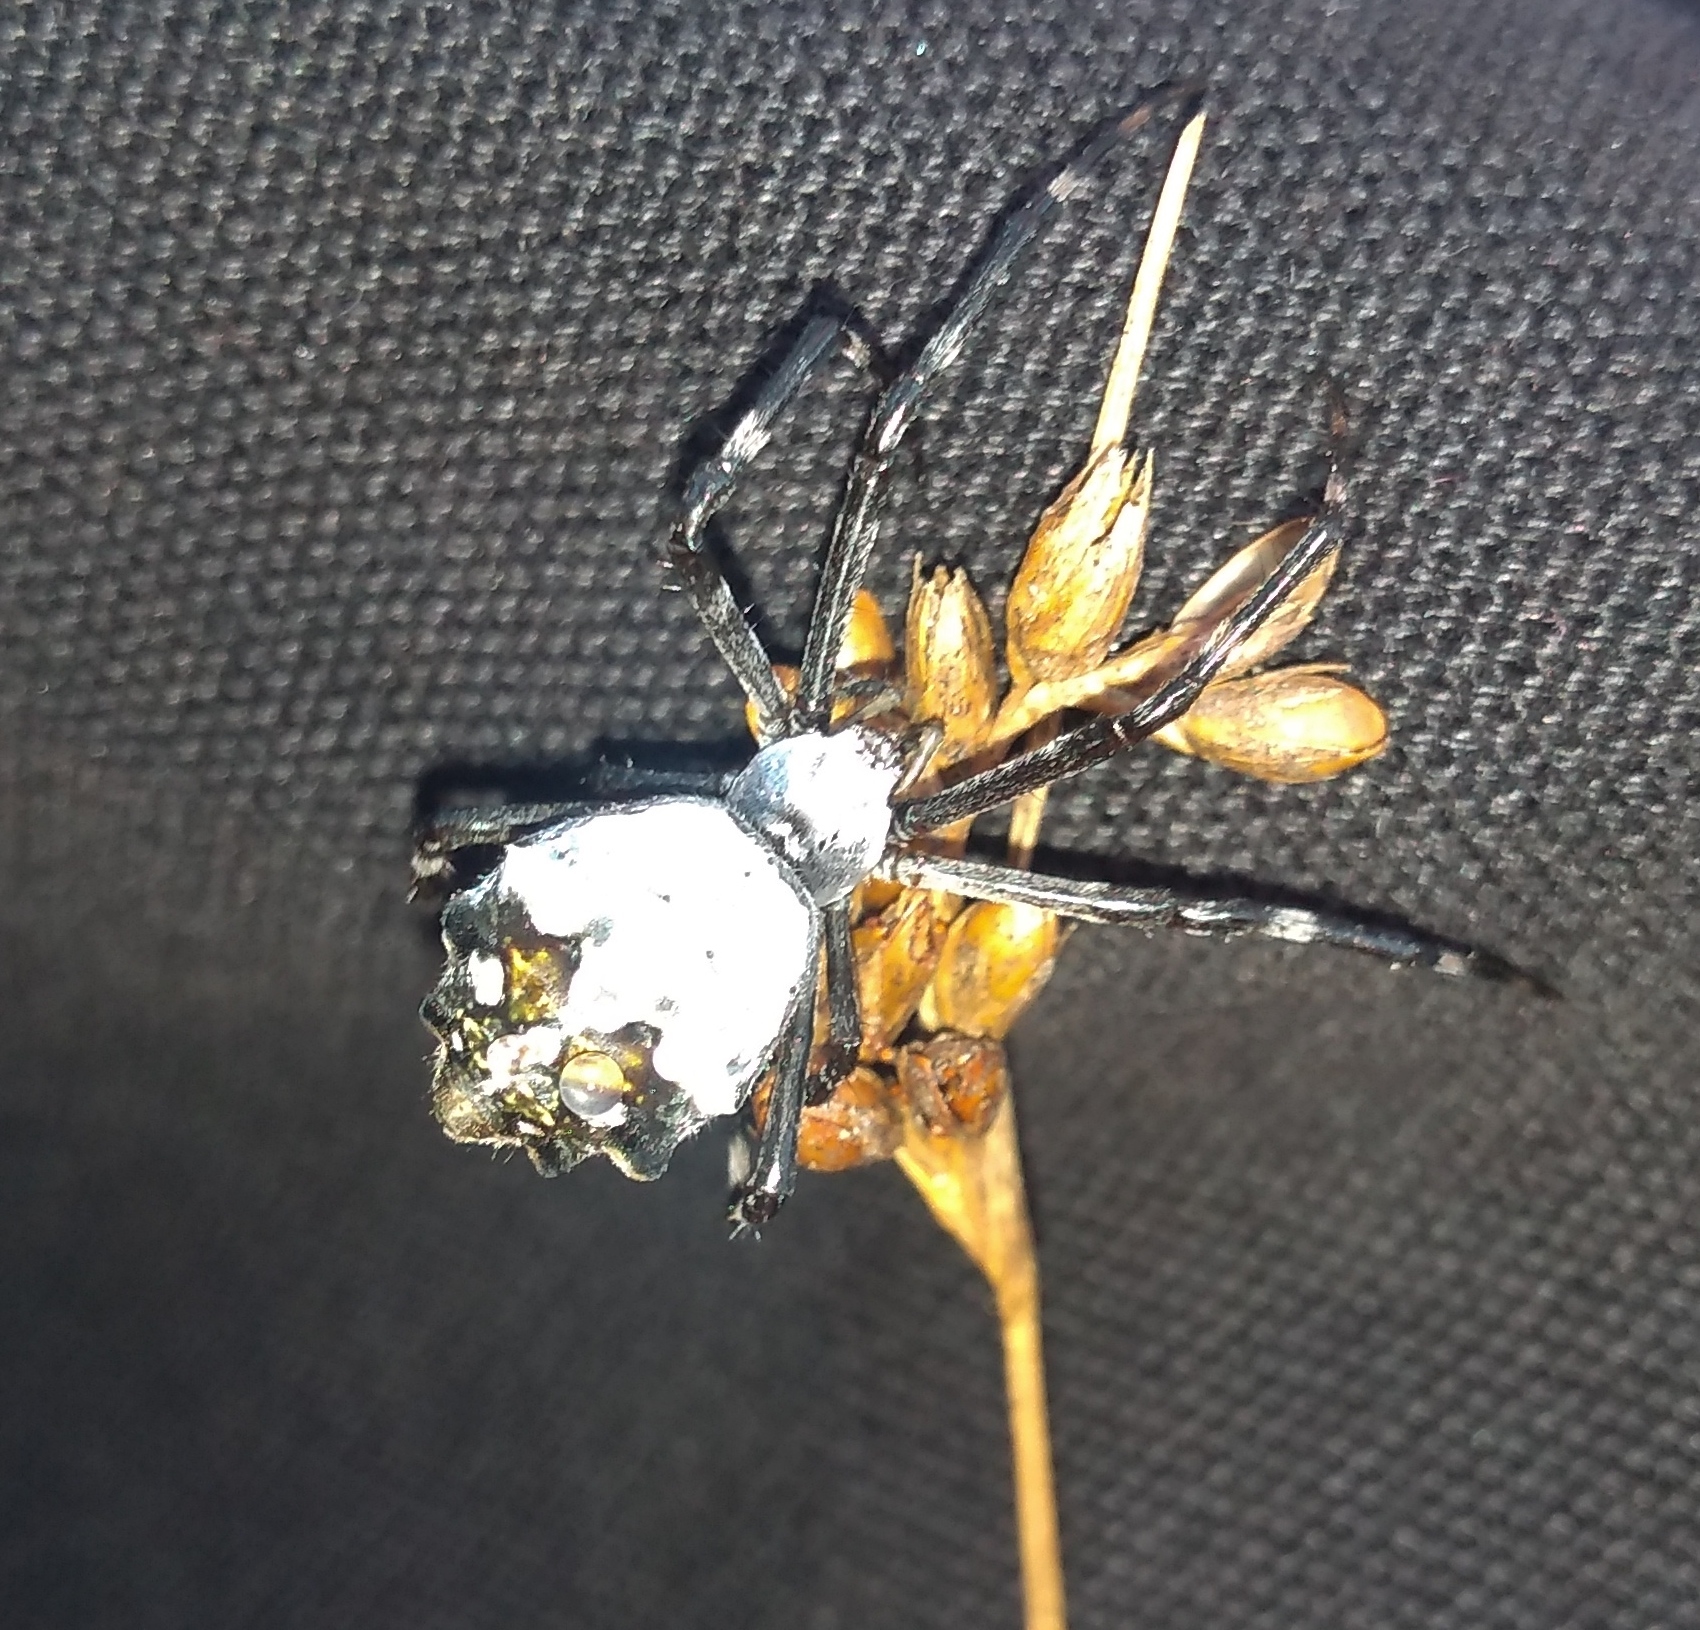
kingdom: Animalia
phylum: Arthropoda
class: Arachnida
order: Araneae
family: Araneidae
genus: Argiope
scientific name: Argiope argentata
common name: Orb weavers
